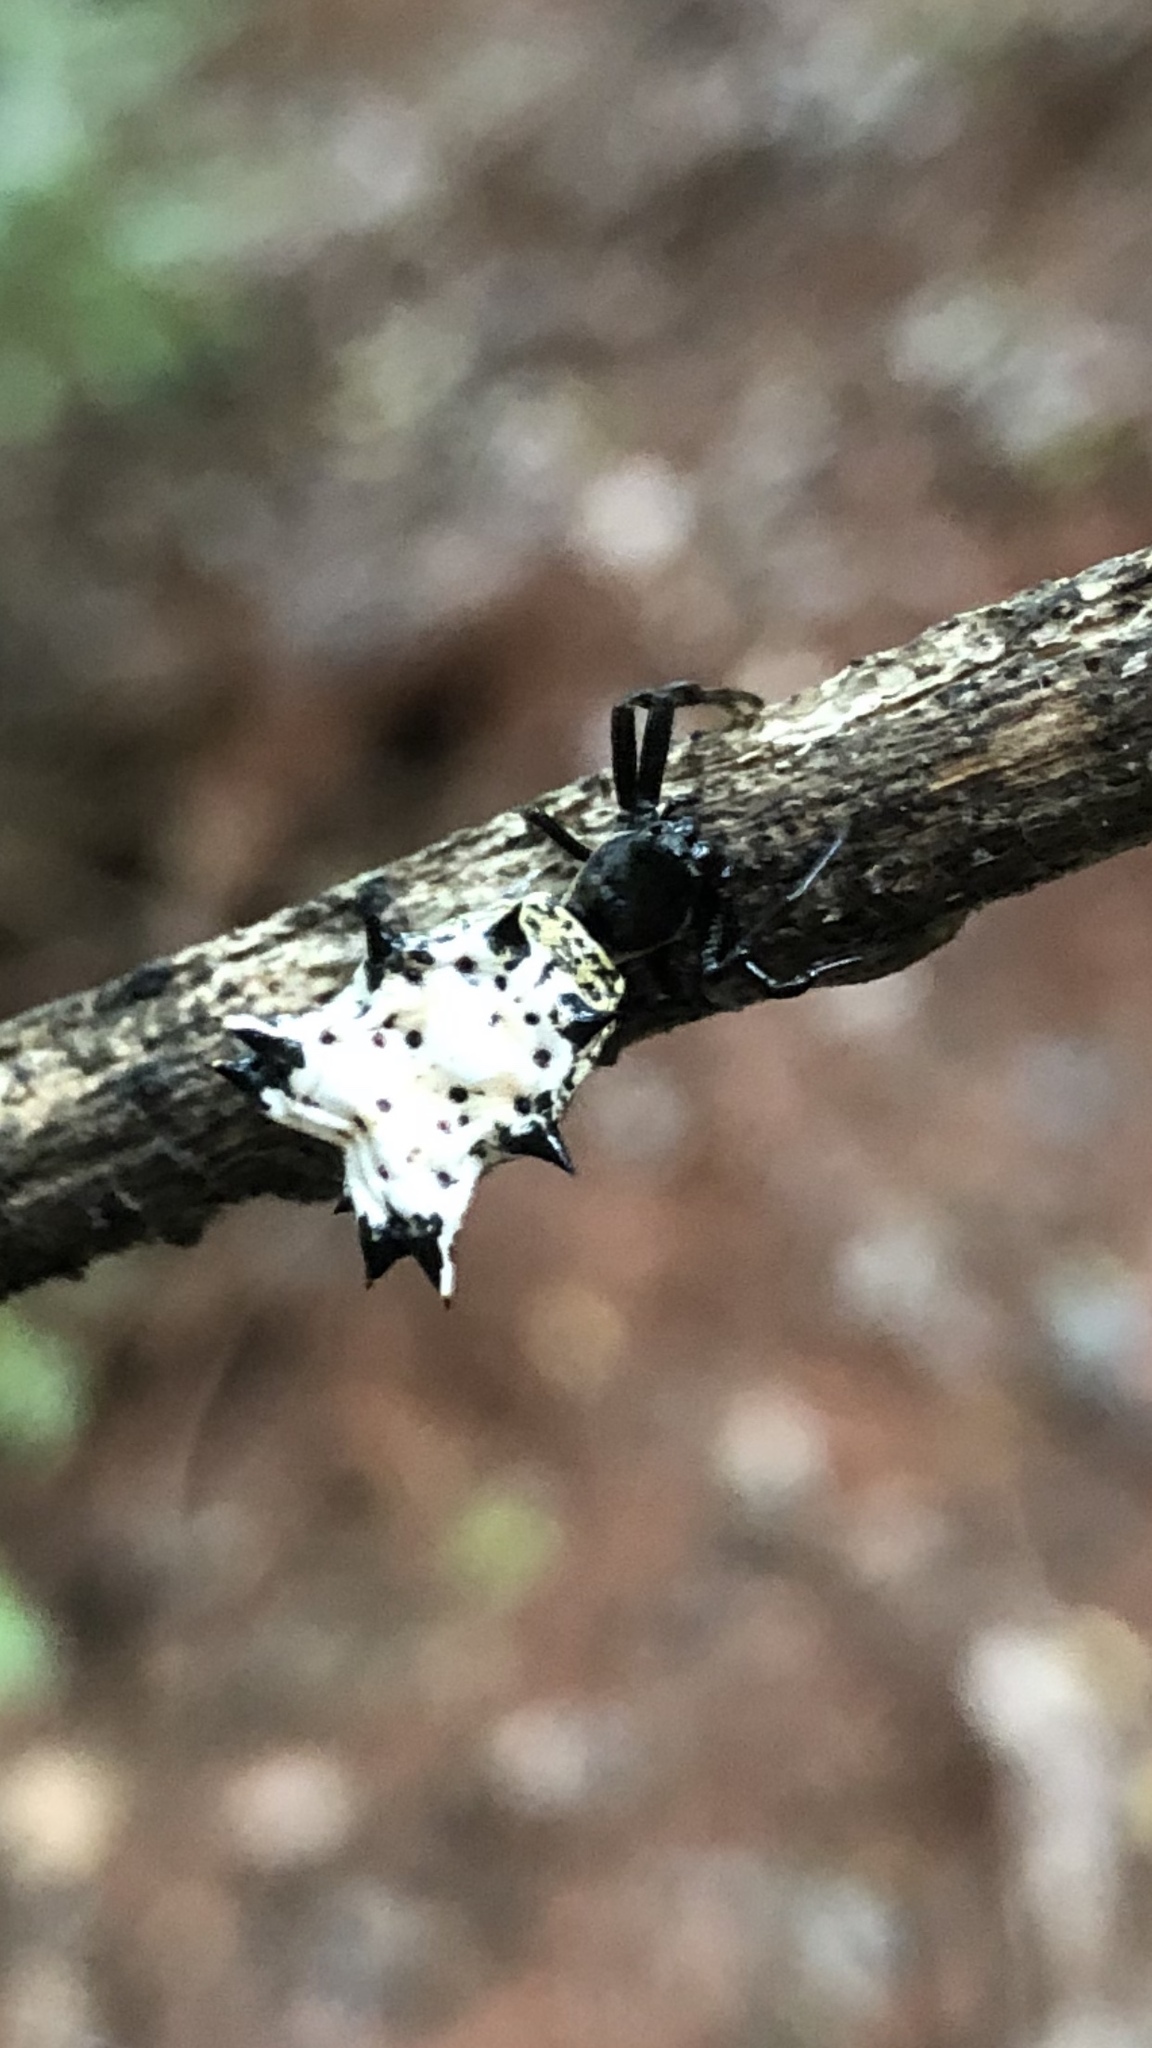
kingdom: Animalia
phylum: Arthropoda
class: Arachnida
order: Araneae
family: Araneidae
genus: Micrathena
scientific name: Micrathena gracilis
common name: Orb weavers
